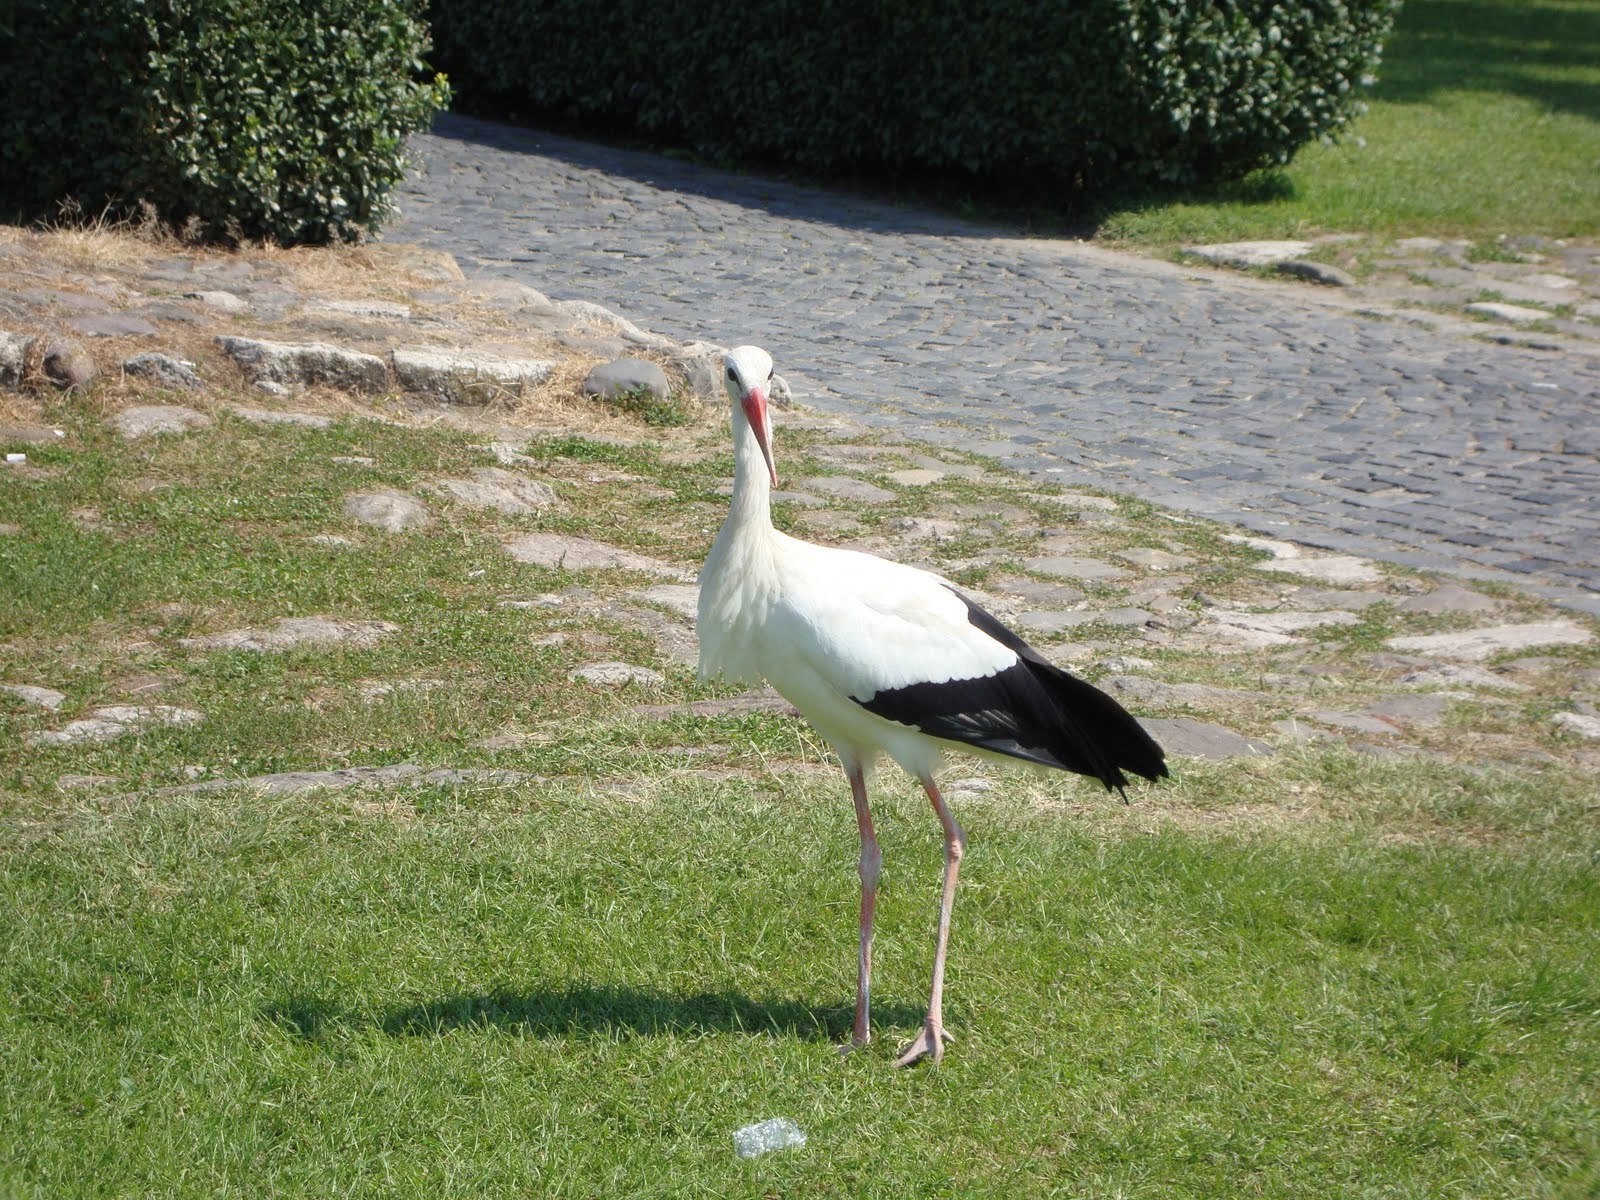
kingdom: Animalia
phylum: Chordata
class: Aves
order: Ciconiiformes
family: Ciconiidae
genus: Ciconia
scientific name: Ciconia ciconia
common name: White stork
